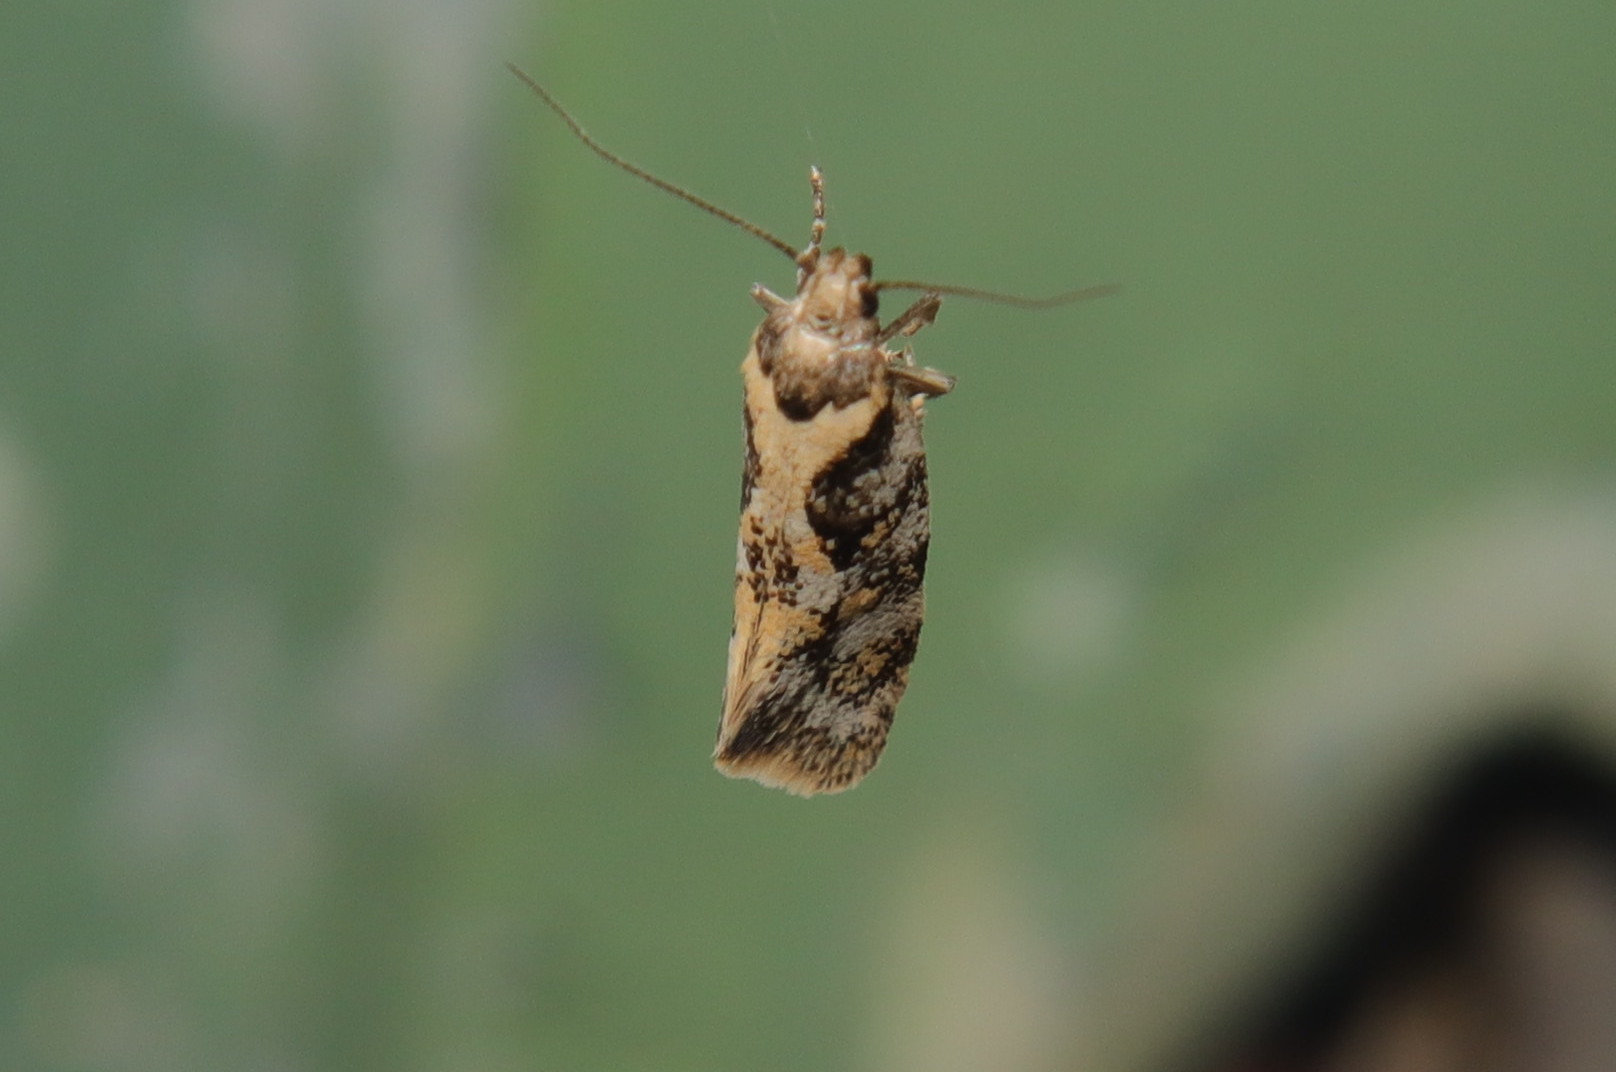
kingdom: Animalia
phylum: Arthropoda
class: Insecta
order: Lepidoptera
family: Oecophoridae
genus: Tingena
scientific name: Tingena lassa
